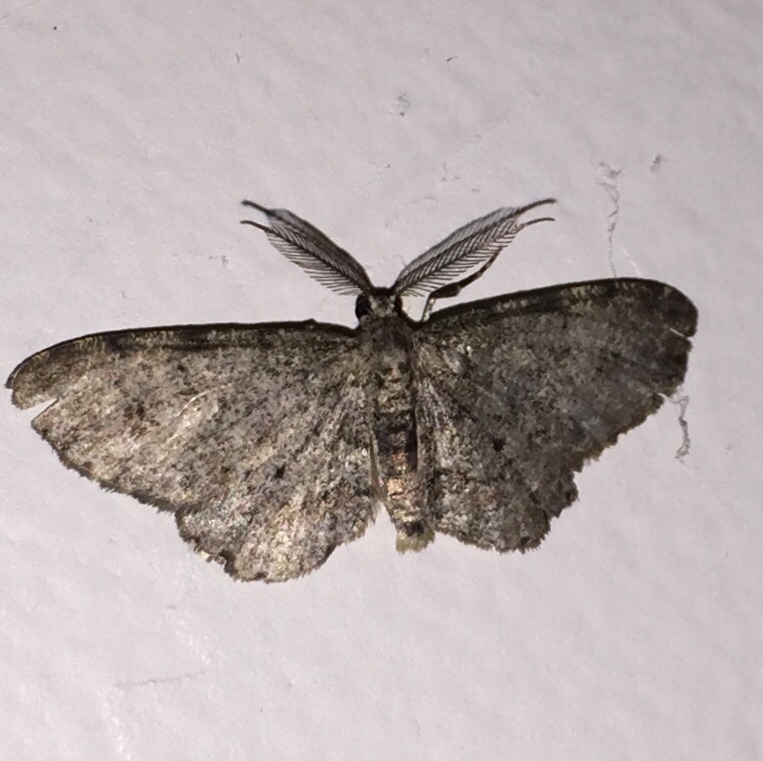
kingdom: Animalia
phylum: Arthropoda
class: Insecta
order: Lepidoptera
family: Geometridae
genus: Glenoides
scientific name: Glenoides texanaria
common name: Texas gray
